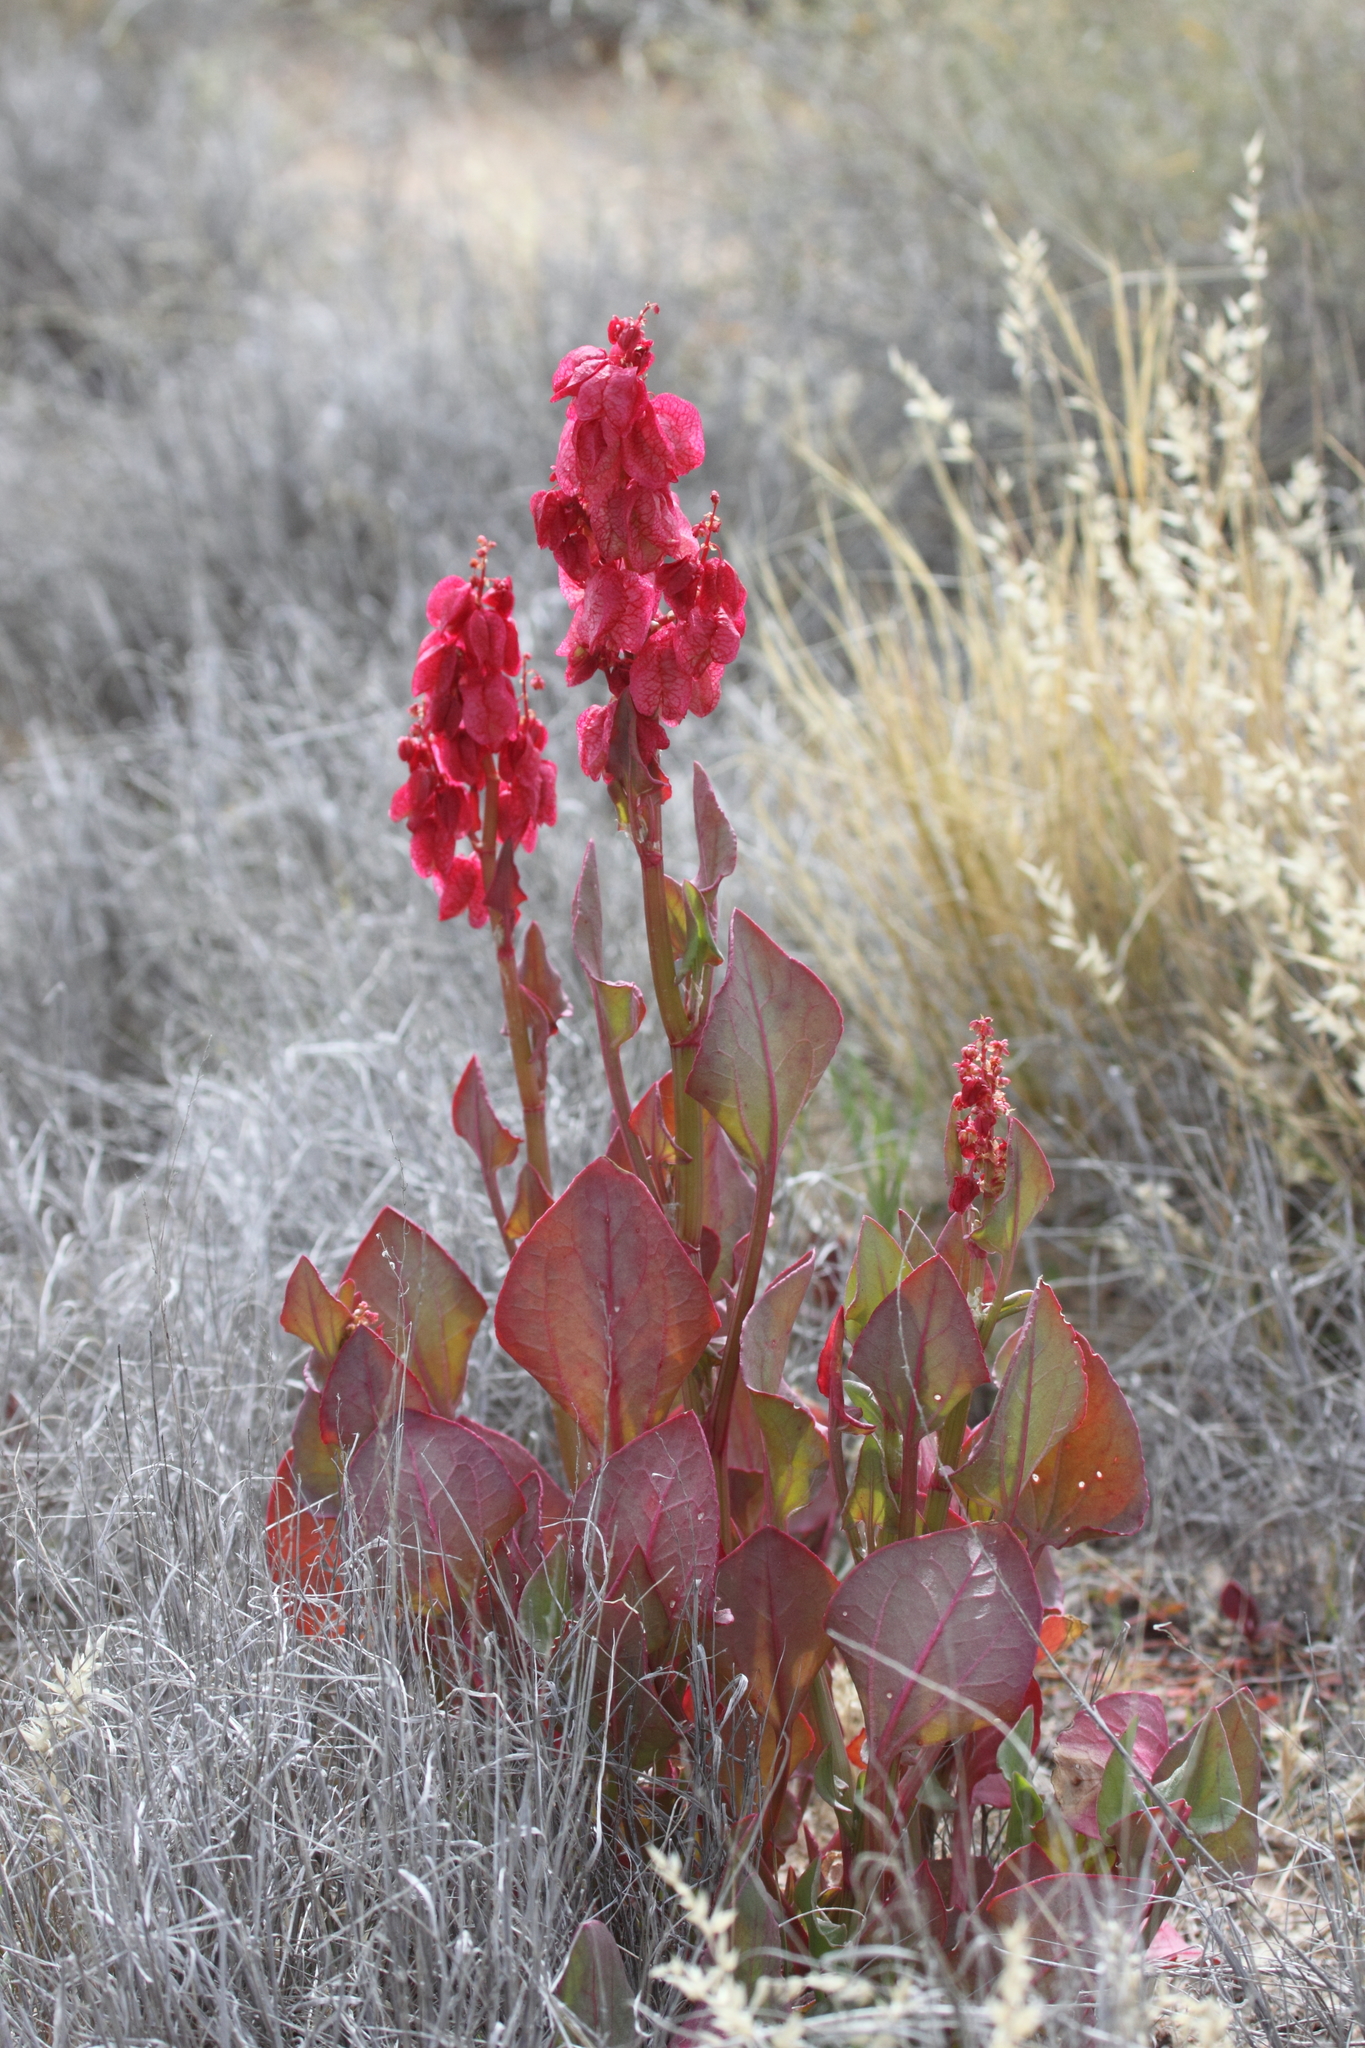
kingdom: Plantae
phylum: Tracheophyta
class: Magnoliopsida
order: Caryophyllales
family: Polygonaceae
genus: Rumex
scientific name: Rumex vesicarius
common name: Bladder dock
